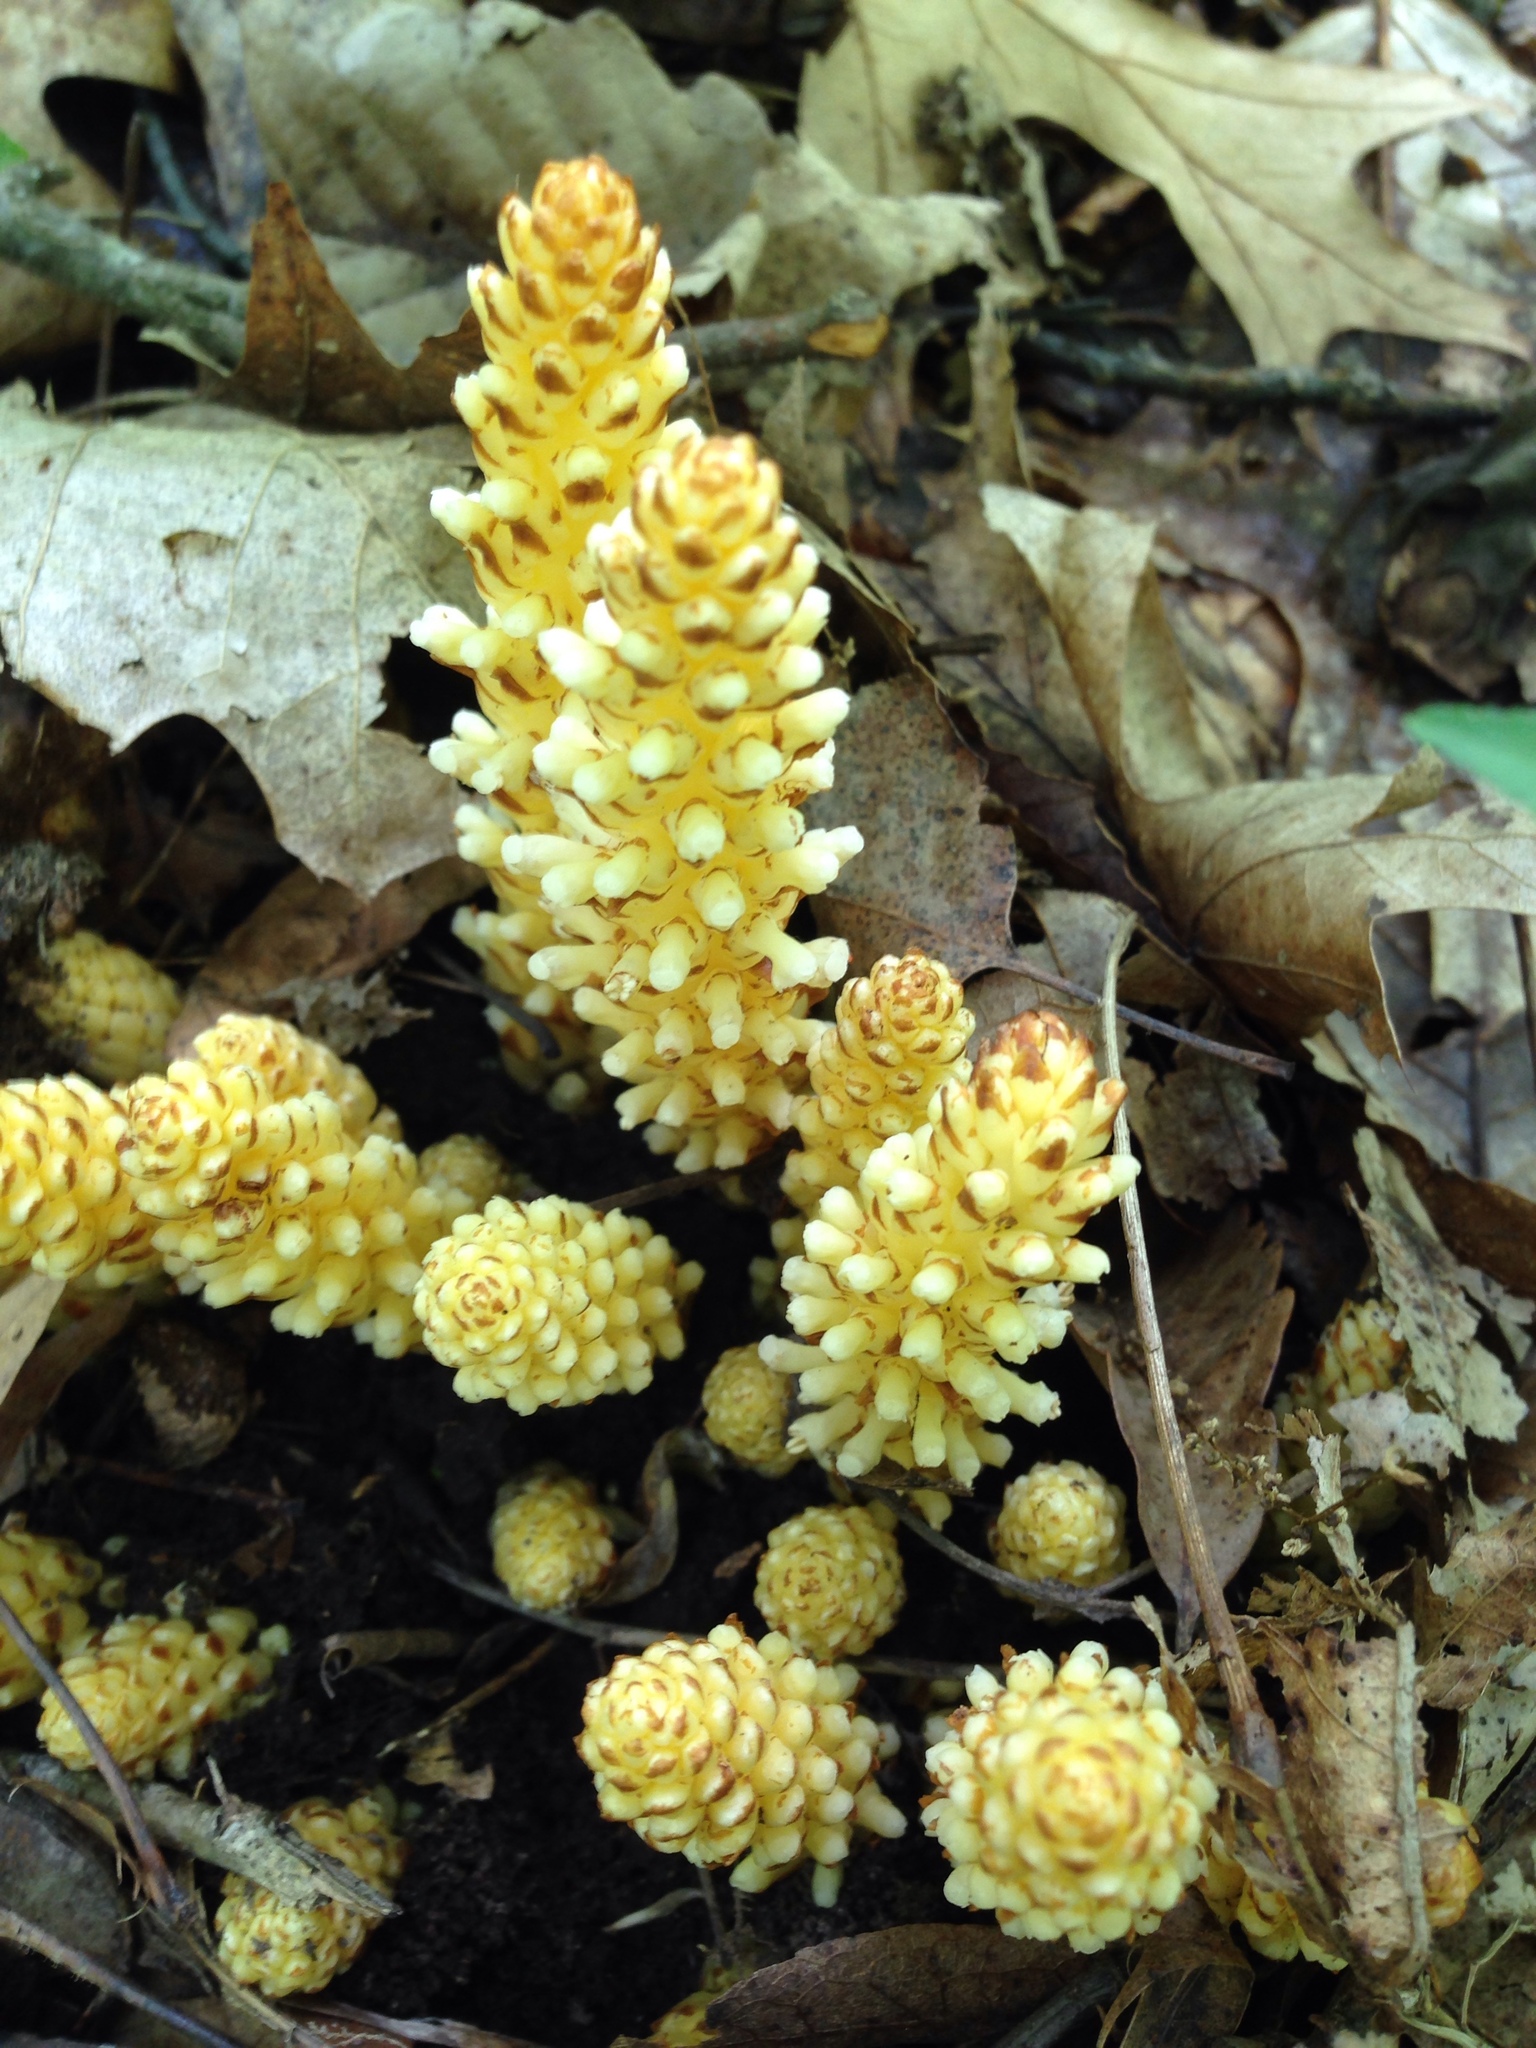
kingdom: Plantae
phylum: Tracheophyta
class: Magnoliopsida
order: Lamiales
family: Orobanchaceae
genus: Conopholis
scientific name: Conopholis americana
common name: American cancer-root
